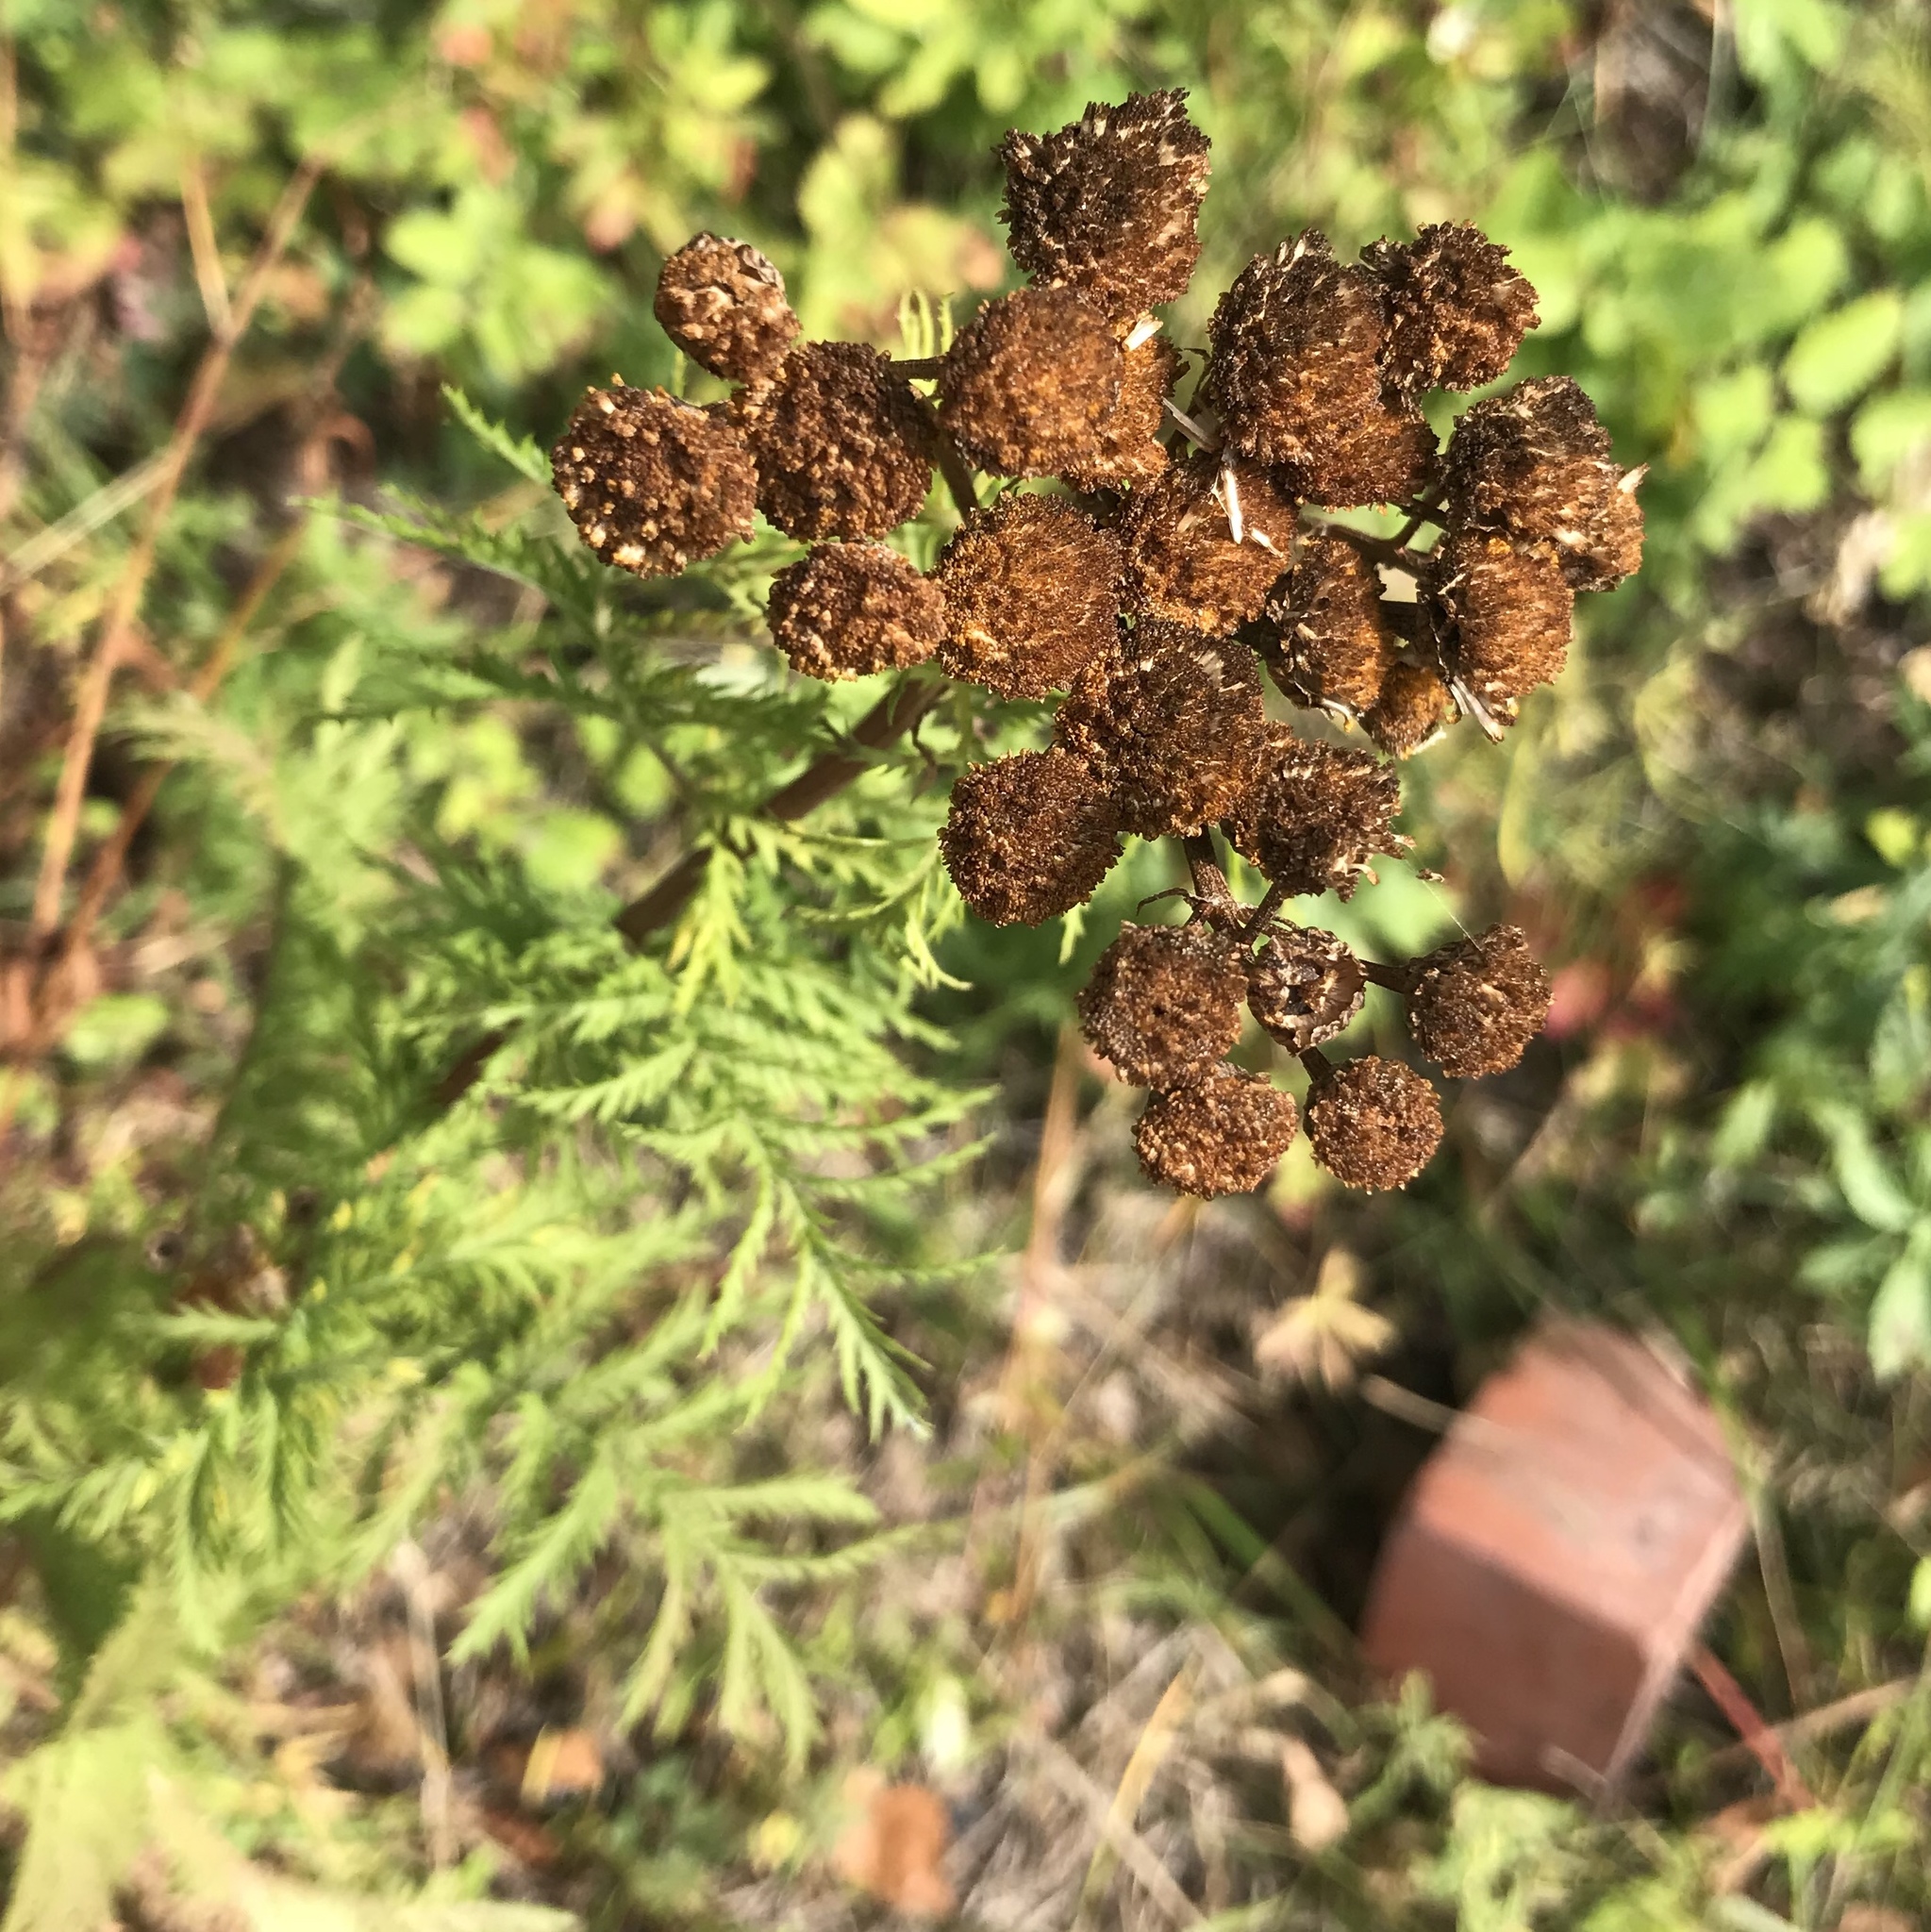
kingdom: Plantae
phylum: Tracheophyta
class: Magnoliopsida
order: Asterales
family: Asteraceae
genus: Tanacetum
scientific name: Tanacetum vulgare
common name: Common tansy
